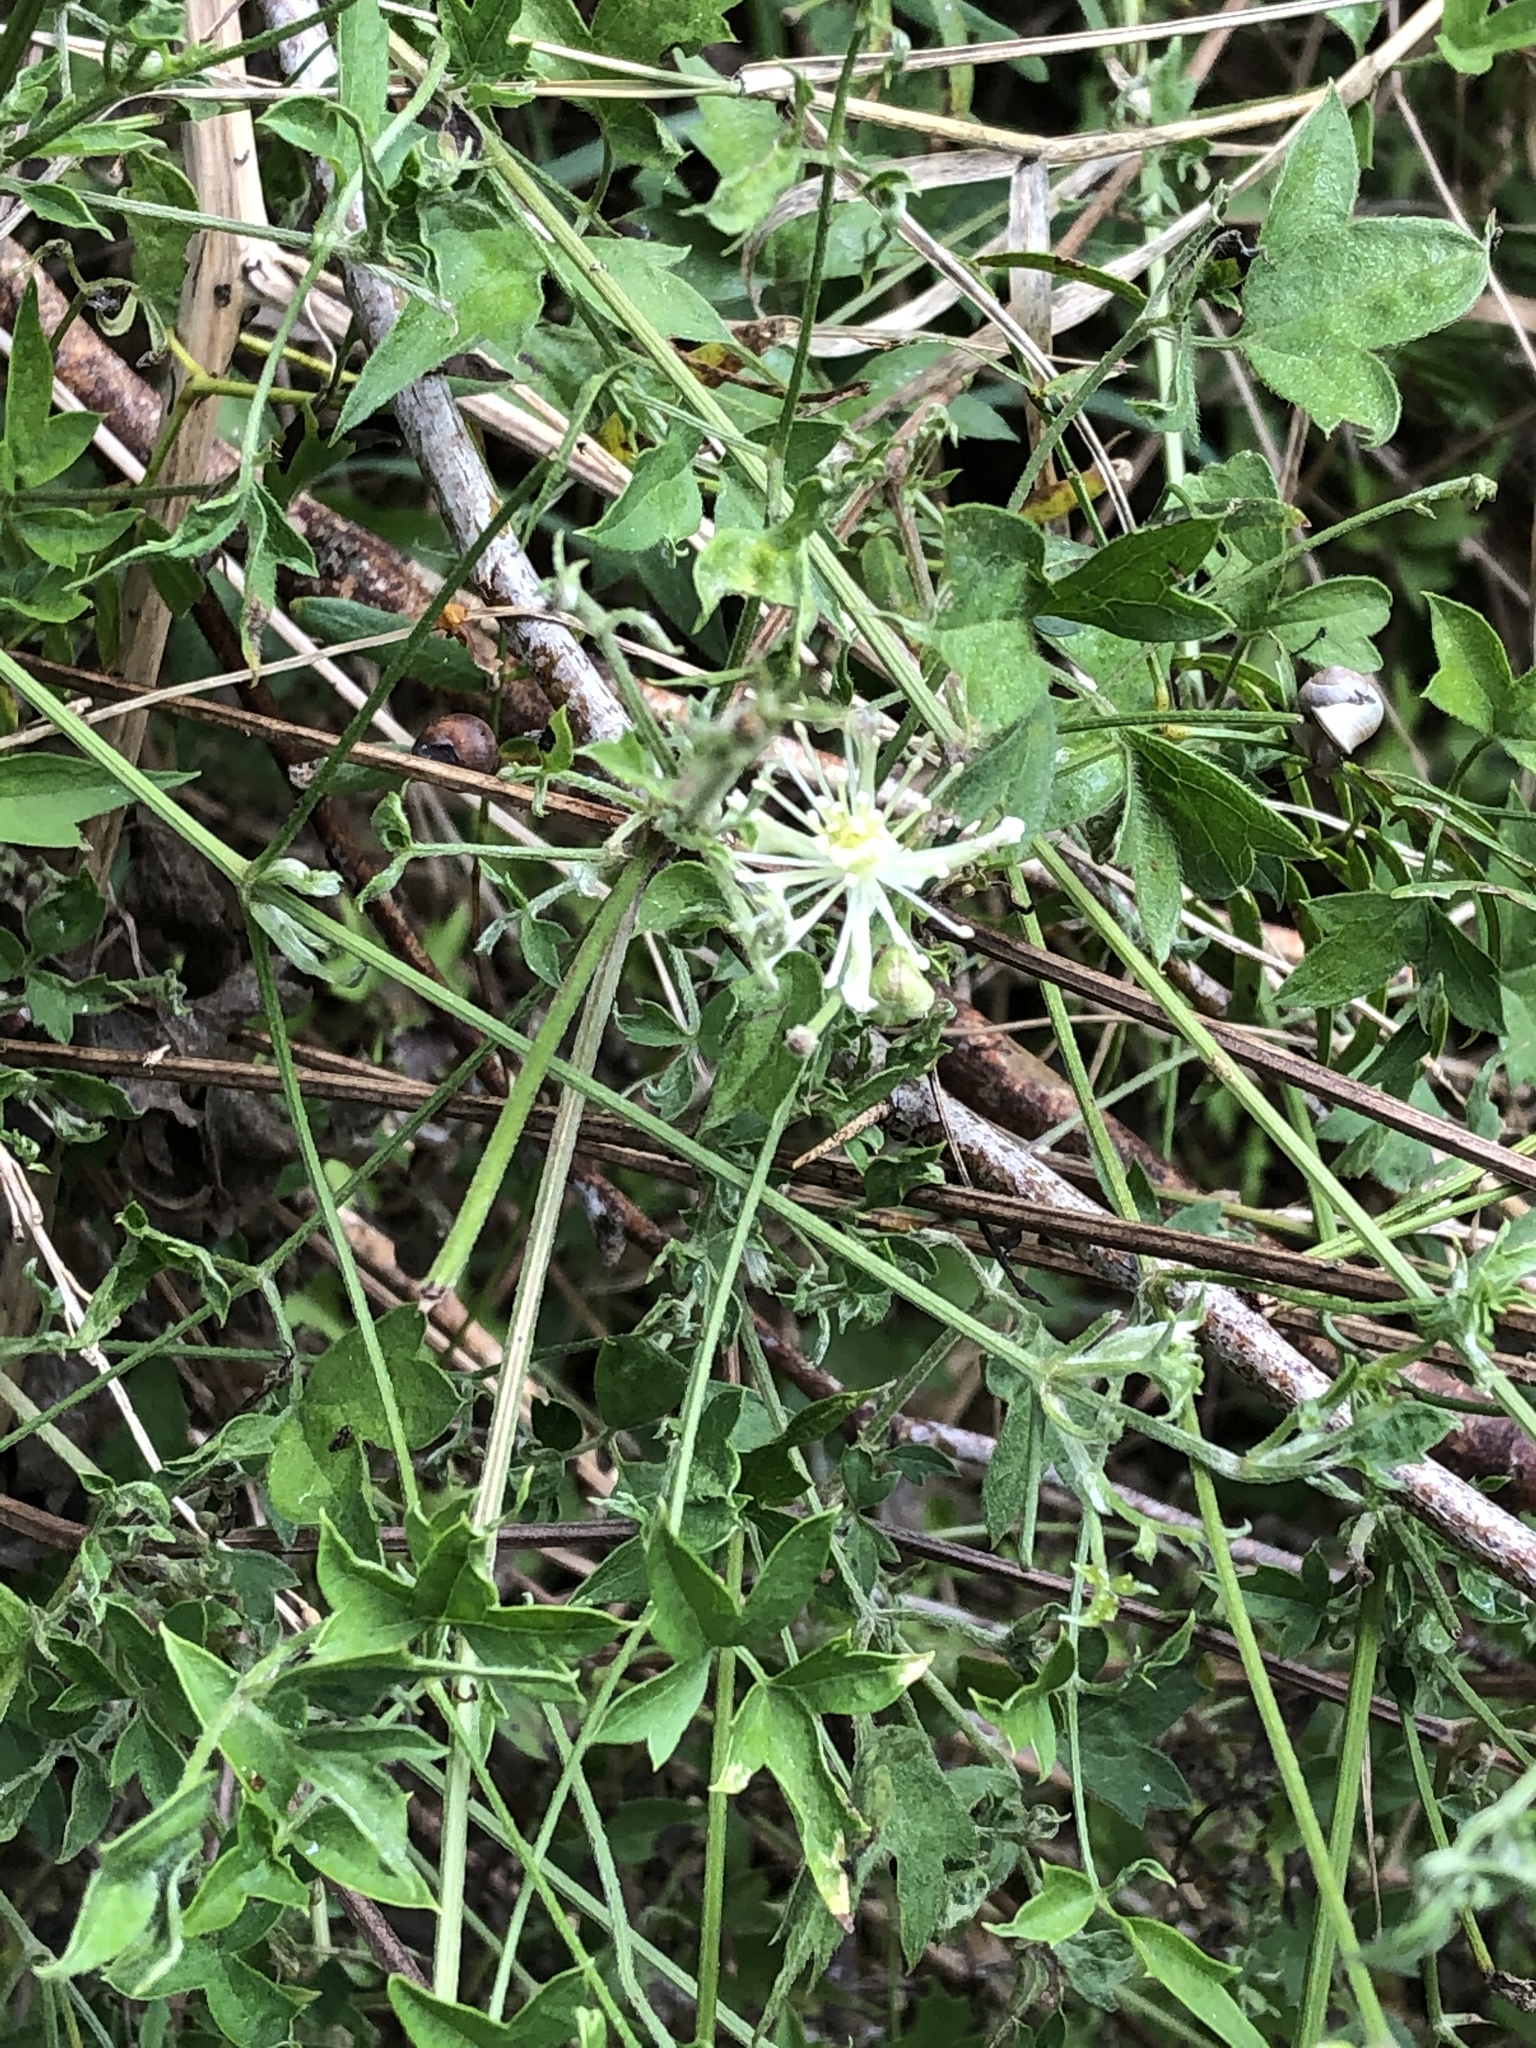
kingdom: Plantae
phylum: Tracheophyta
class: Magnoliopsida
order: Ranunculales
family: Ranunculaceae
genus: Clematis
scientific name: Clematis drummondii
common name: Texas virgin's bower
